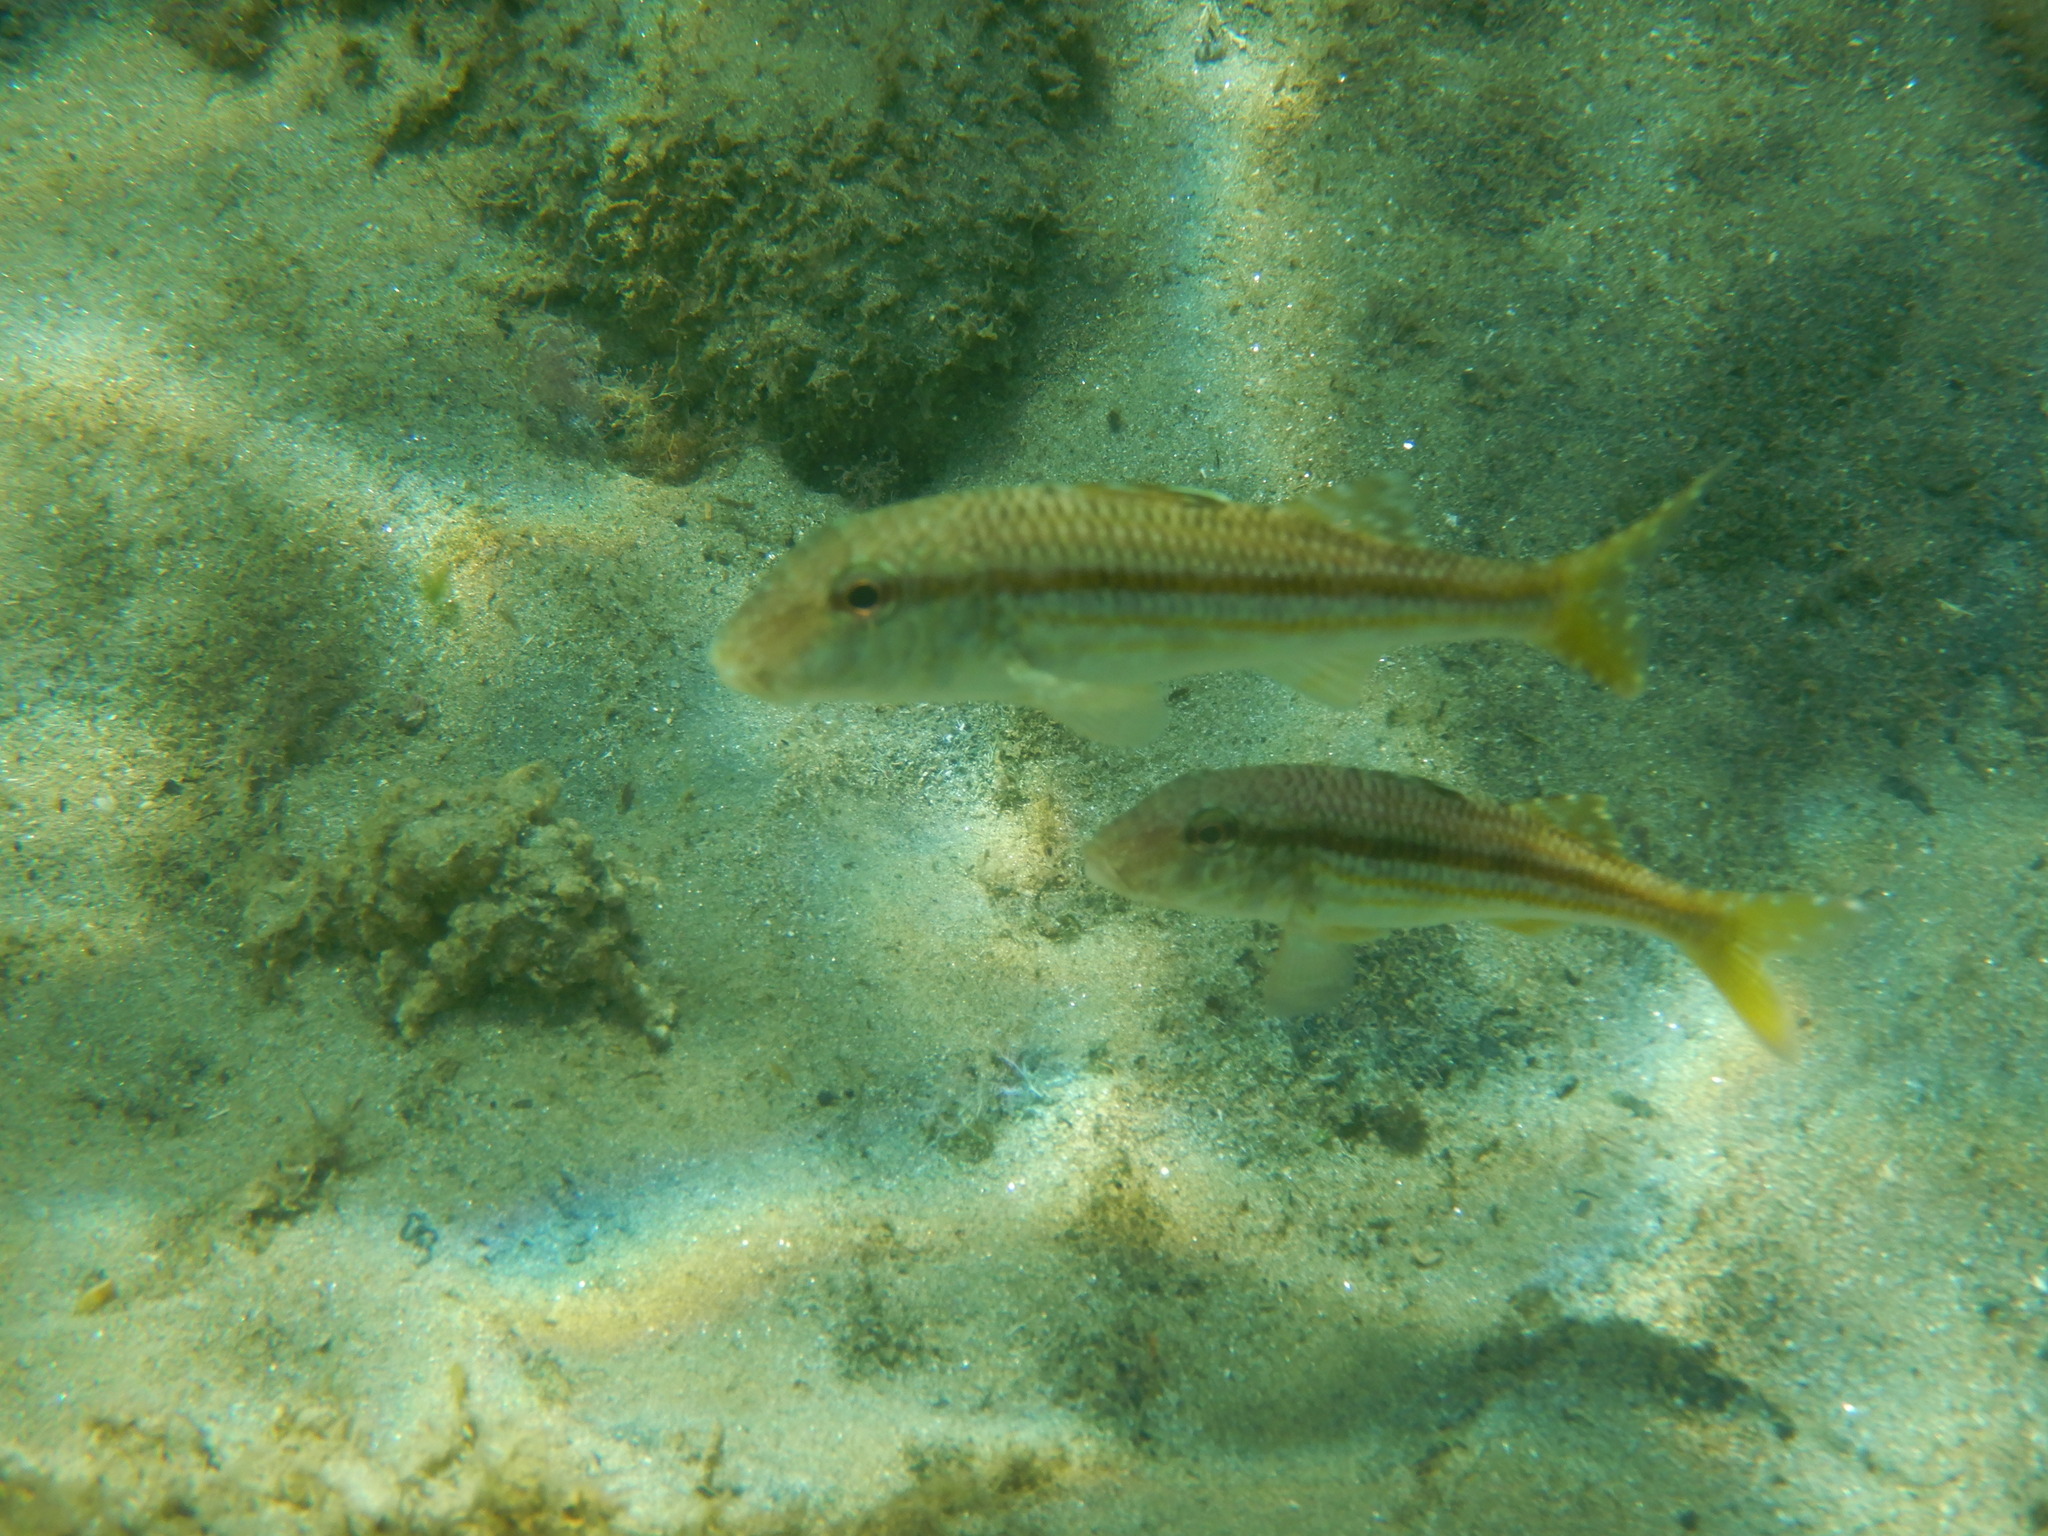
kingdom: Animalia
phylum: Chordata
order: Perciformes
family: Mullidae
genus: Mullus
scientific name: Mullus surmuletus
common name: Red mullet
